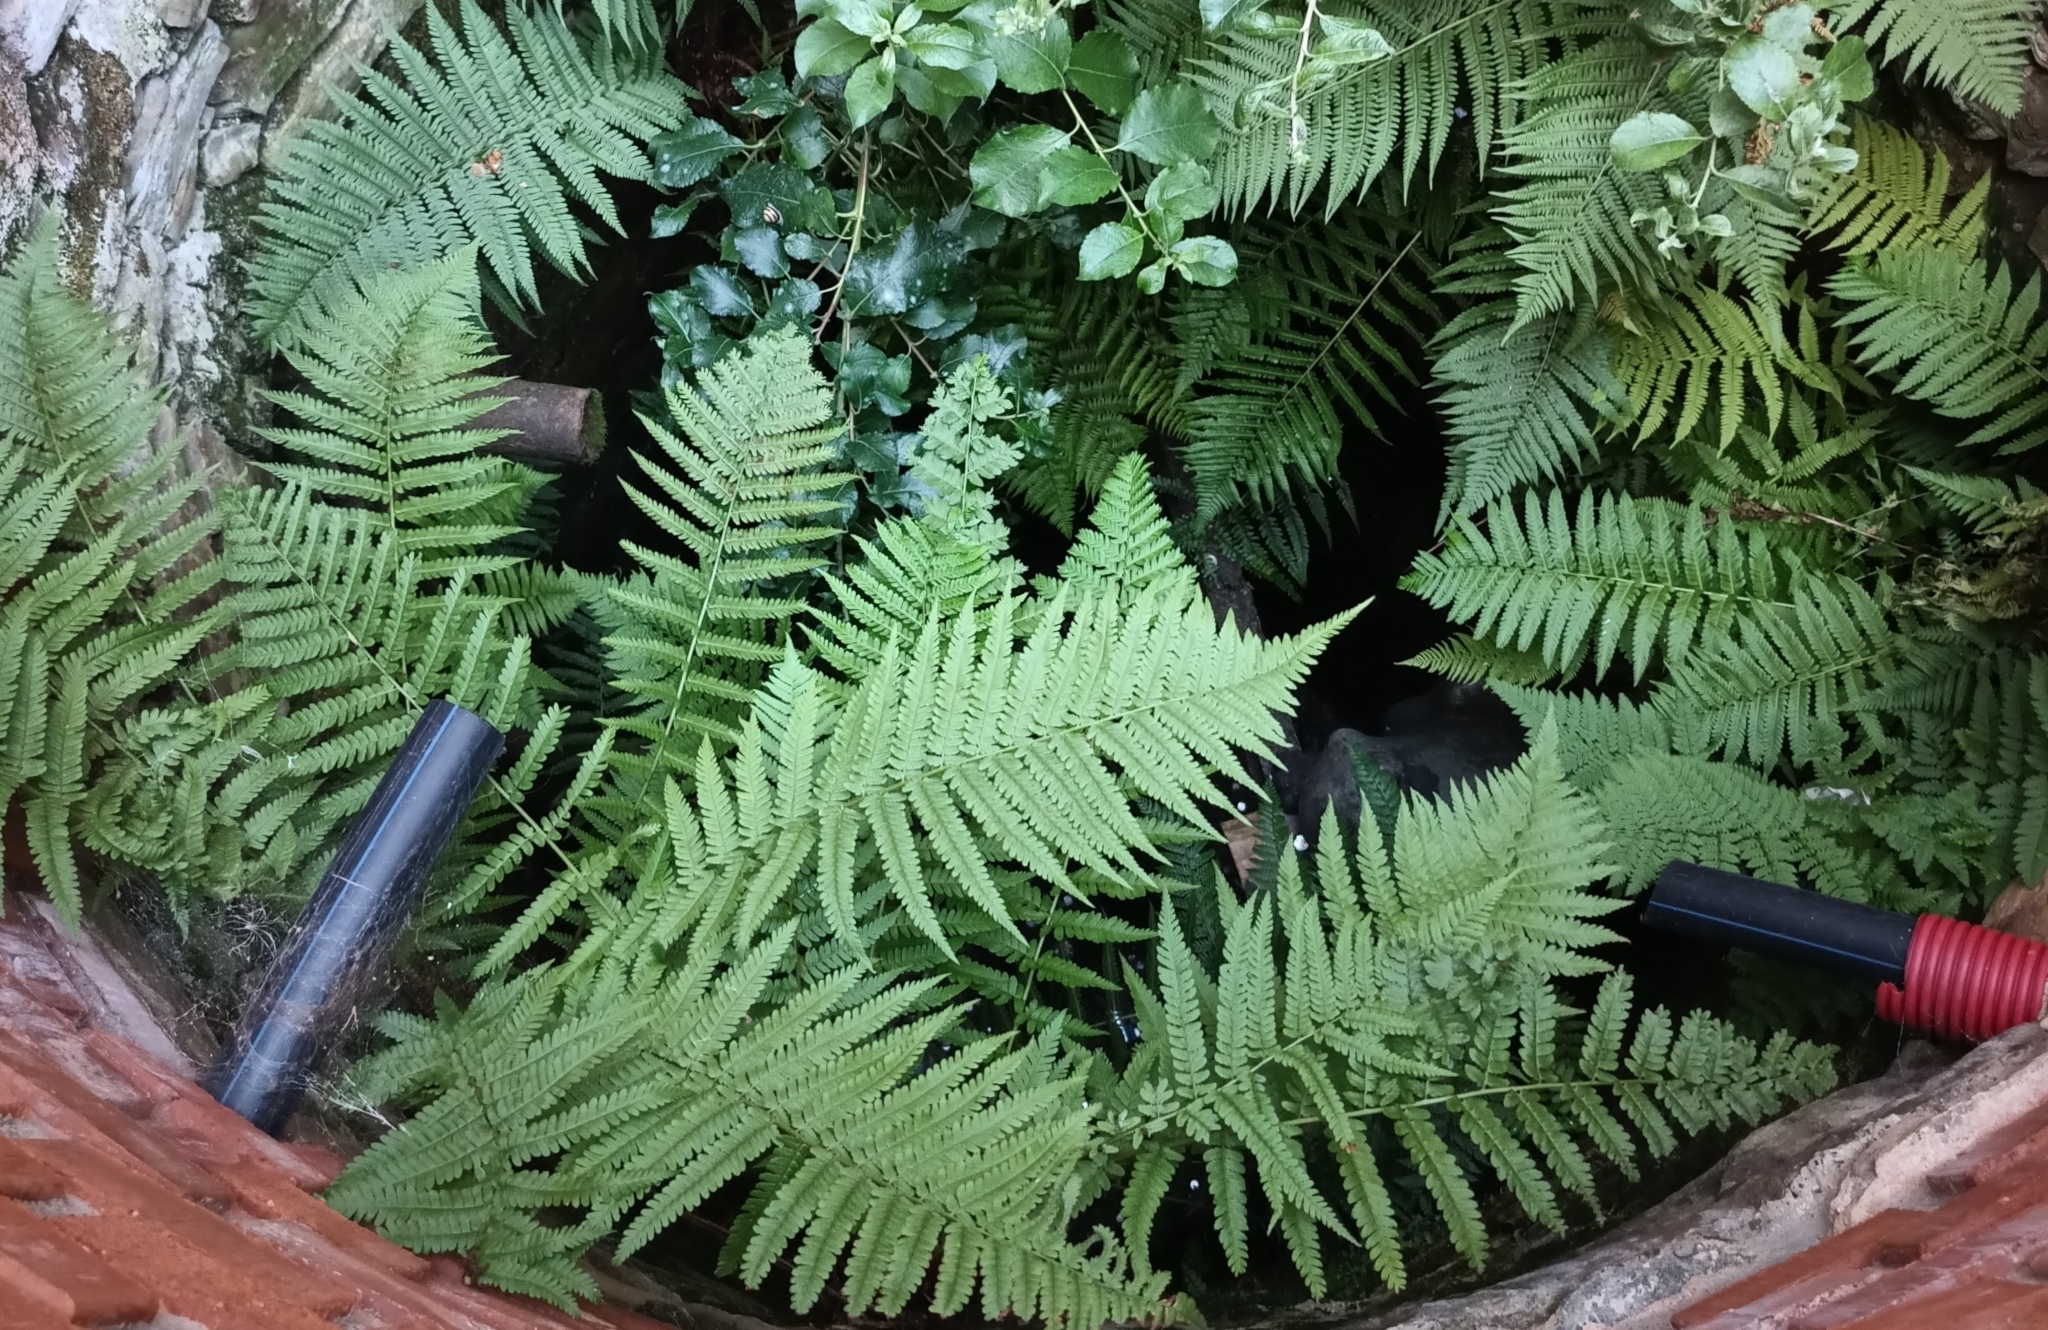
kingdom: Plantae
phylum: Tracheophyta
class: Polypodiopsida
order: Polypodiales
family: Dryopteridaceae
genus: Dryopteris
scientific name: Dryopteris filix-mas
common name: Male fern
